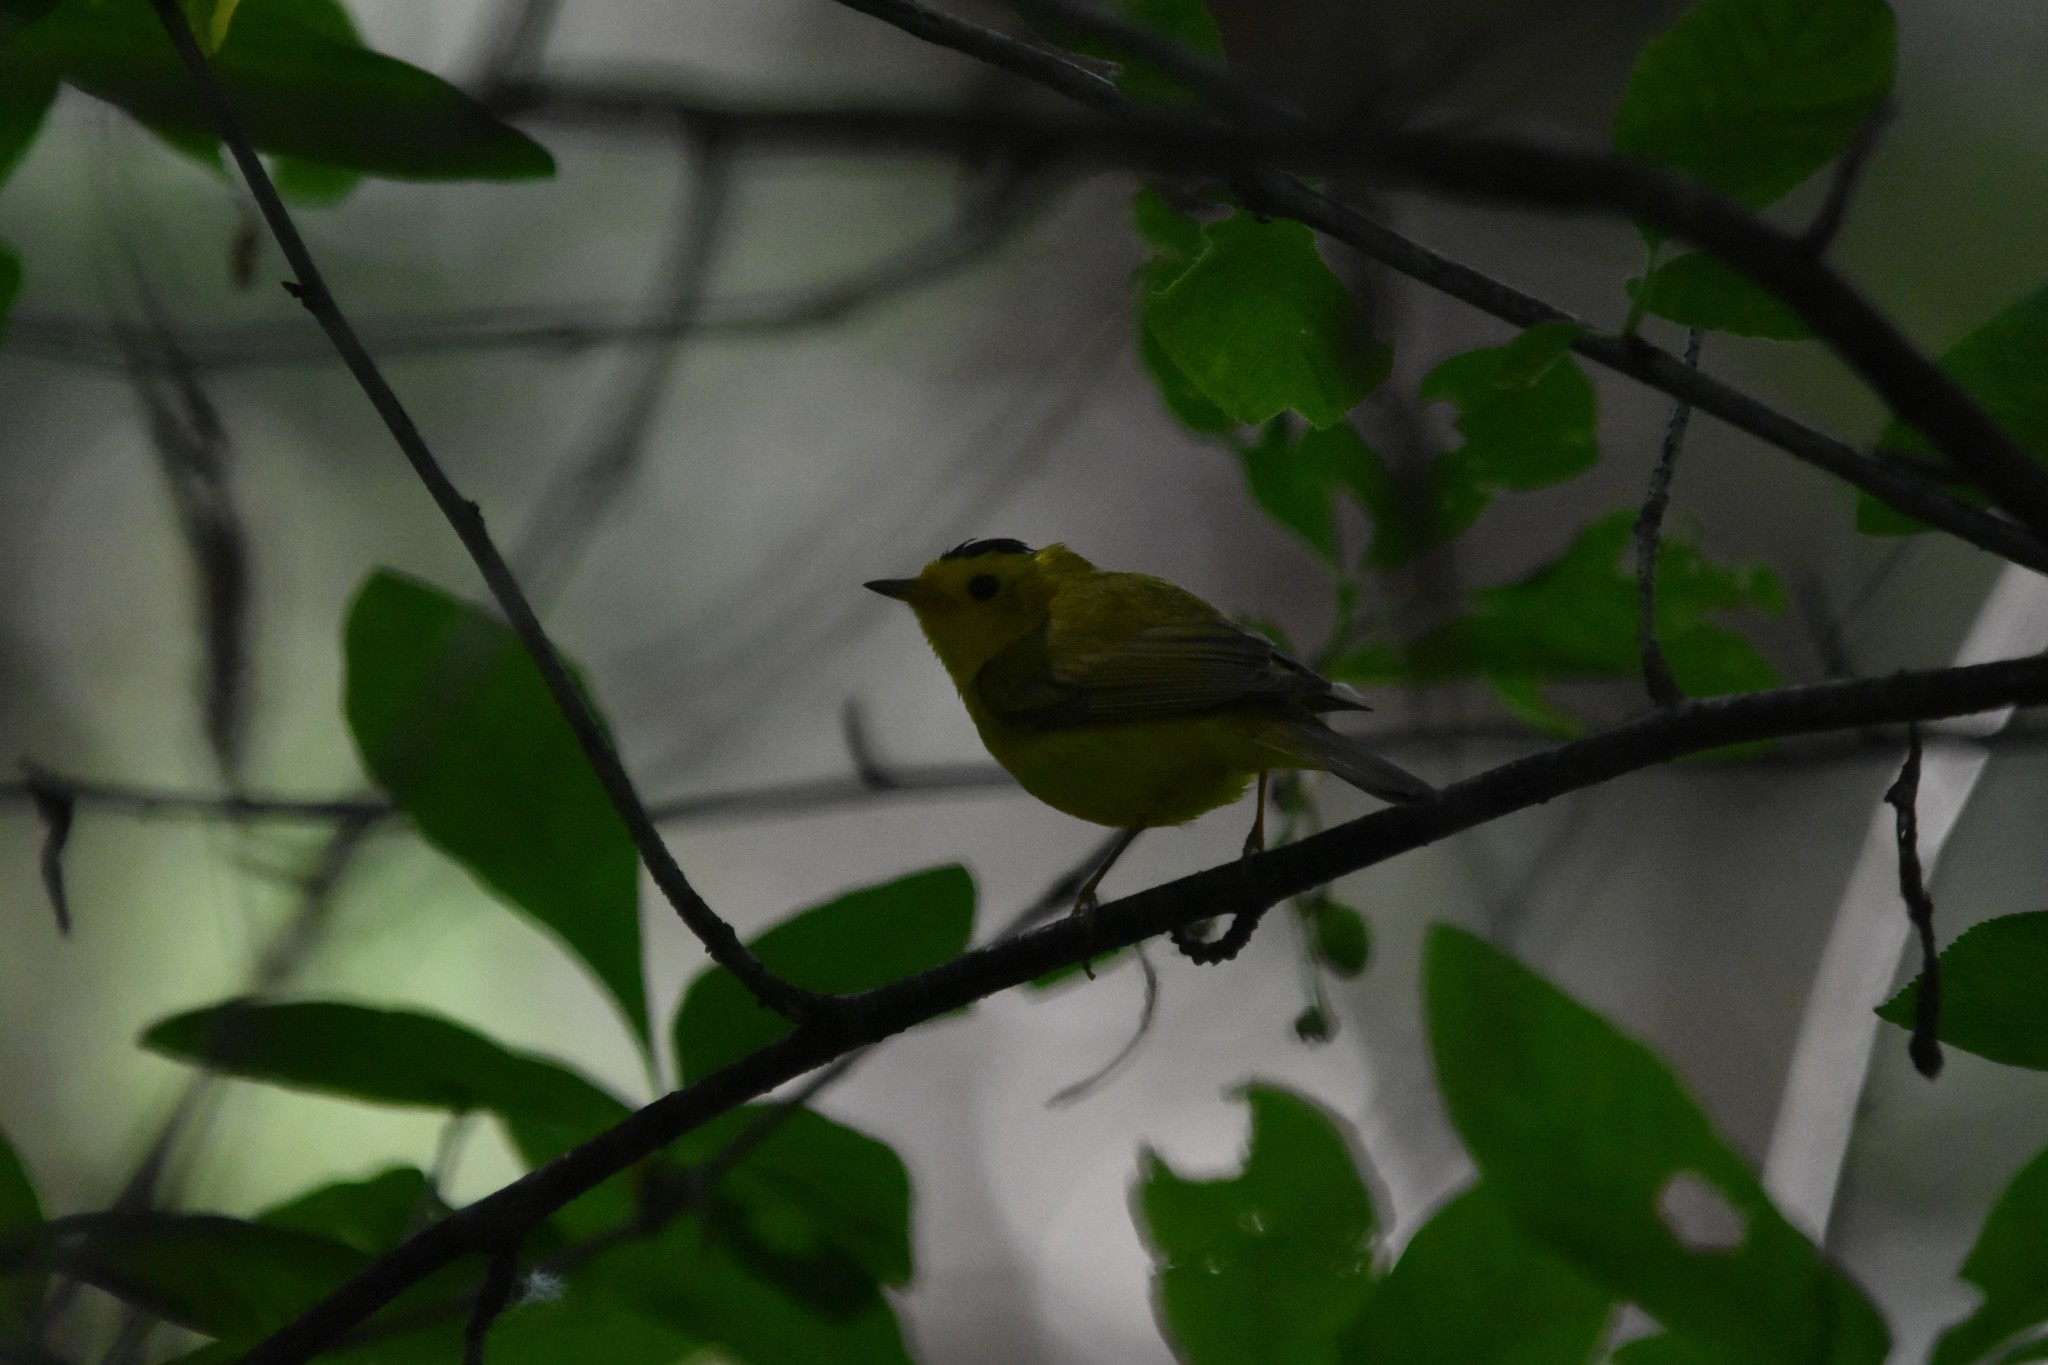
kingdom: Animalia
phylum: Chordata
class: Aves
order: Passeriformes
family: Parulidae
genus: Cardellina
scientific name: Cardellina pusilla
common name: Wilson's warbler
